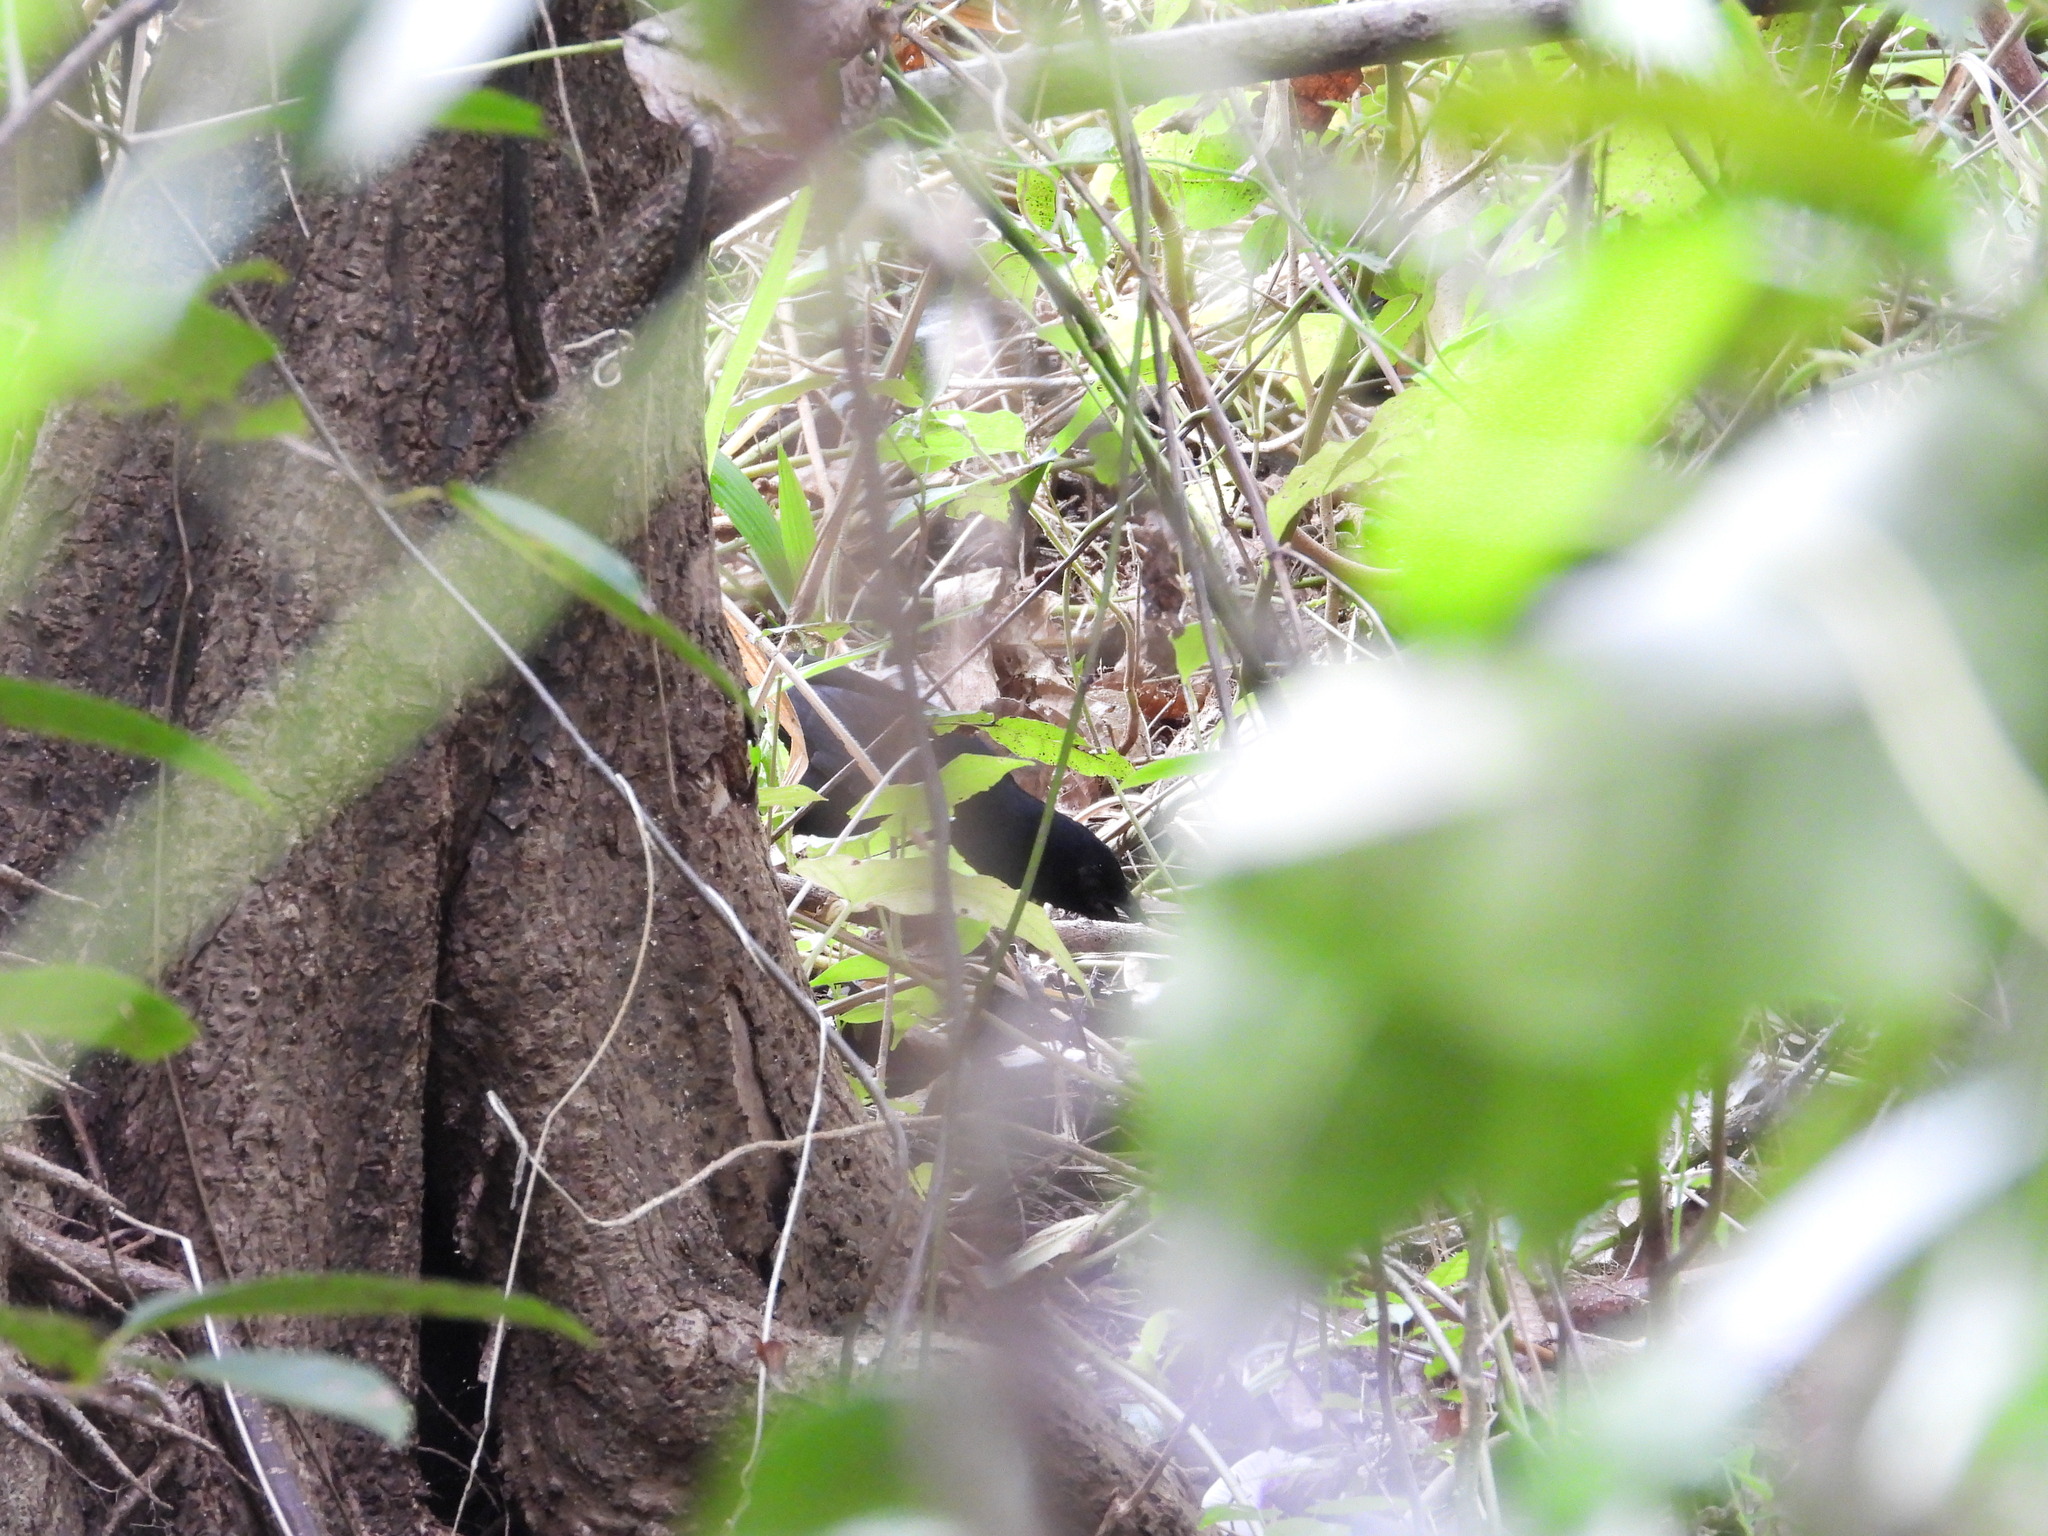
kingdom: Animalia
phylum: Chordata
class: Aves
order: Passeriformes
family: Icteridae
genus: Dives
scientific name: Dives dives
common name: Melodious blackbird
